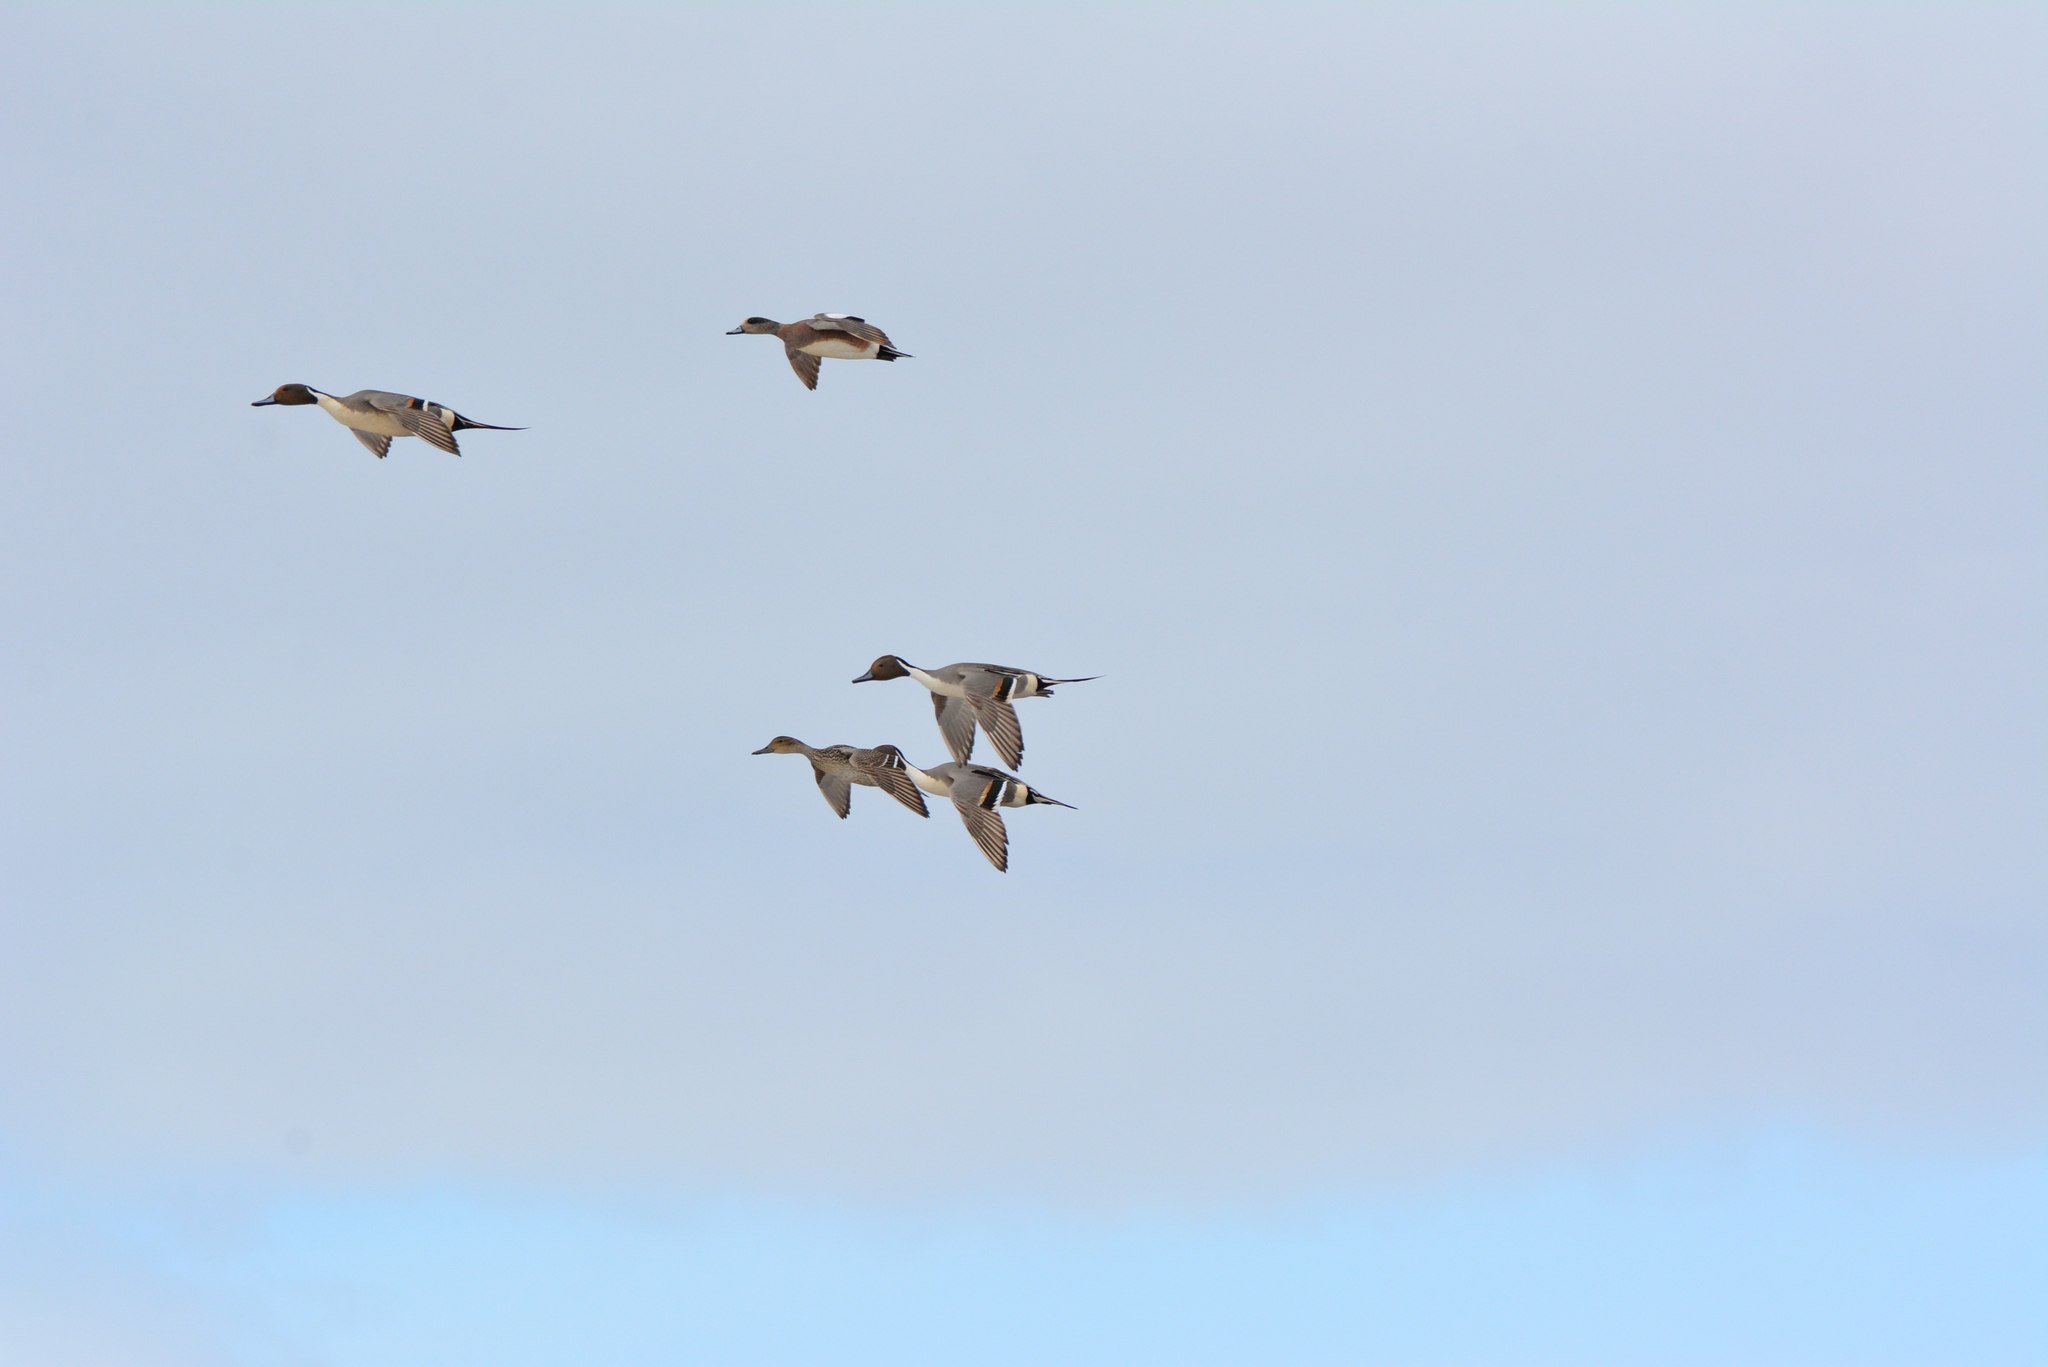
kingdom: Animalia
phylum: Chordata
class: Aves
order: Anseriformes
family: Anatidae
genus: Anas
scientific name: Anas acuta
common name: Northern pintail
